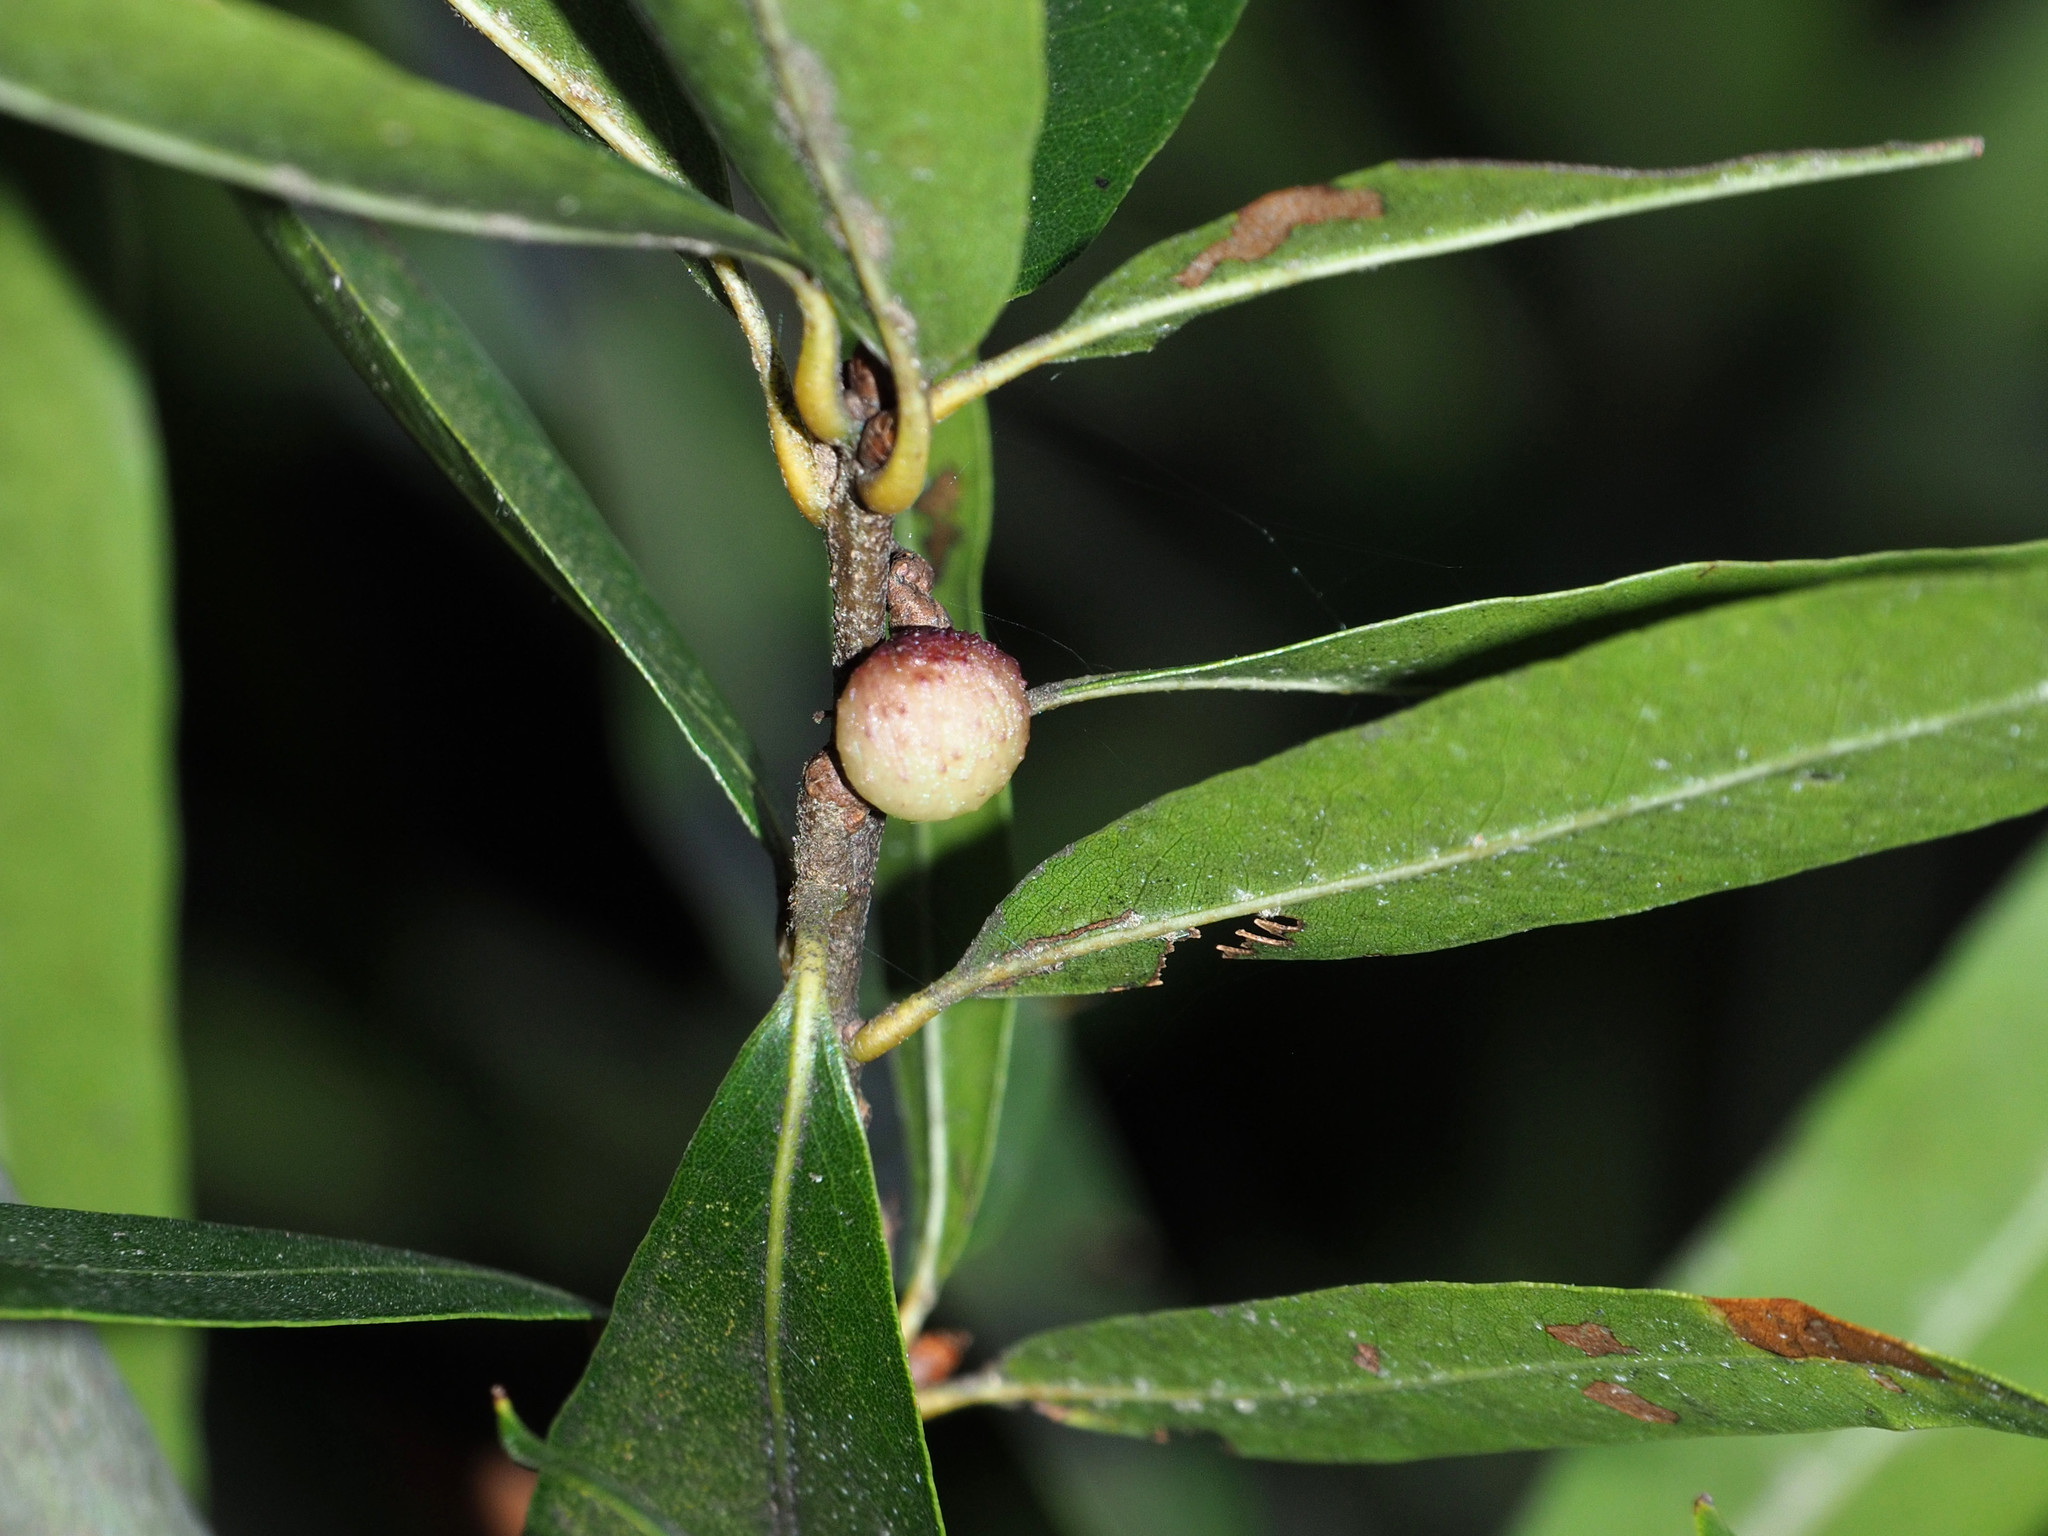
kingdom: Animalia
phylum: Arthropoda
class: Insecta
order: Hymenoptera
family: Cynipidae
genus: Callirhytis
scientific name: Callirhytis
